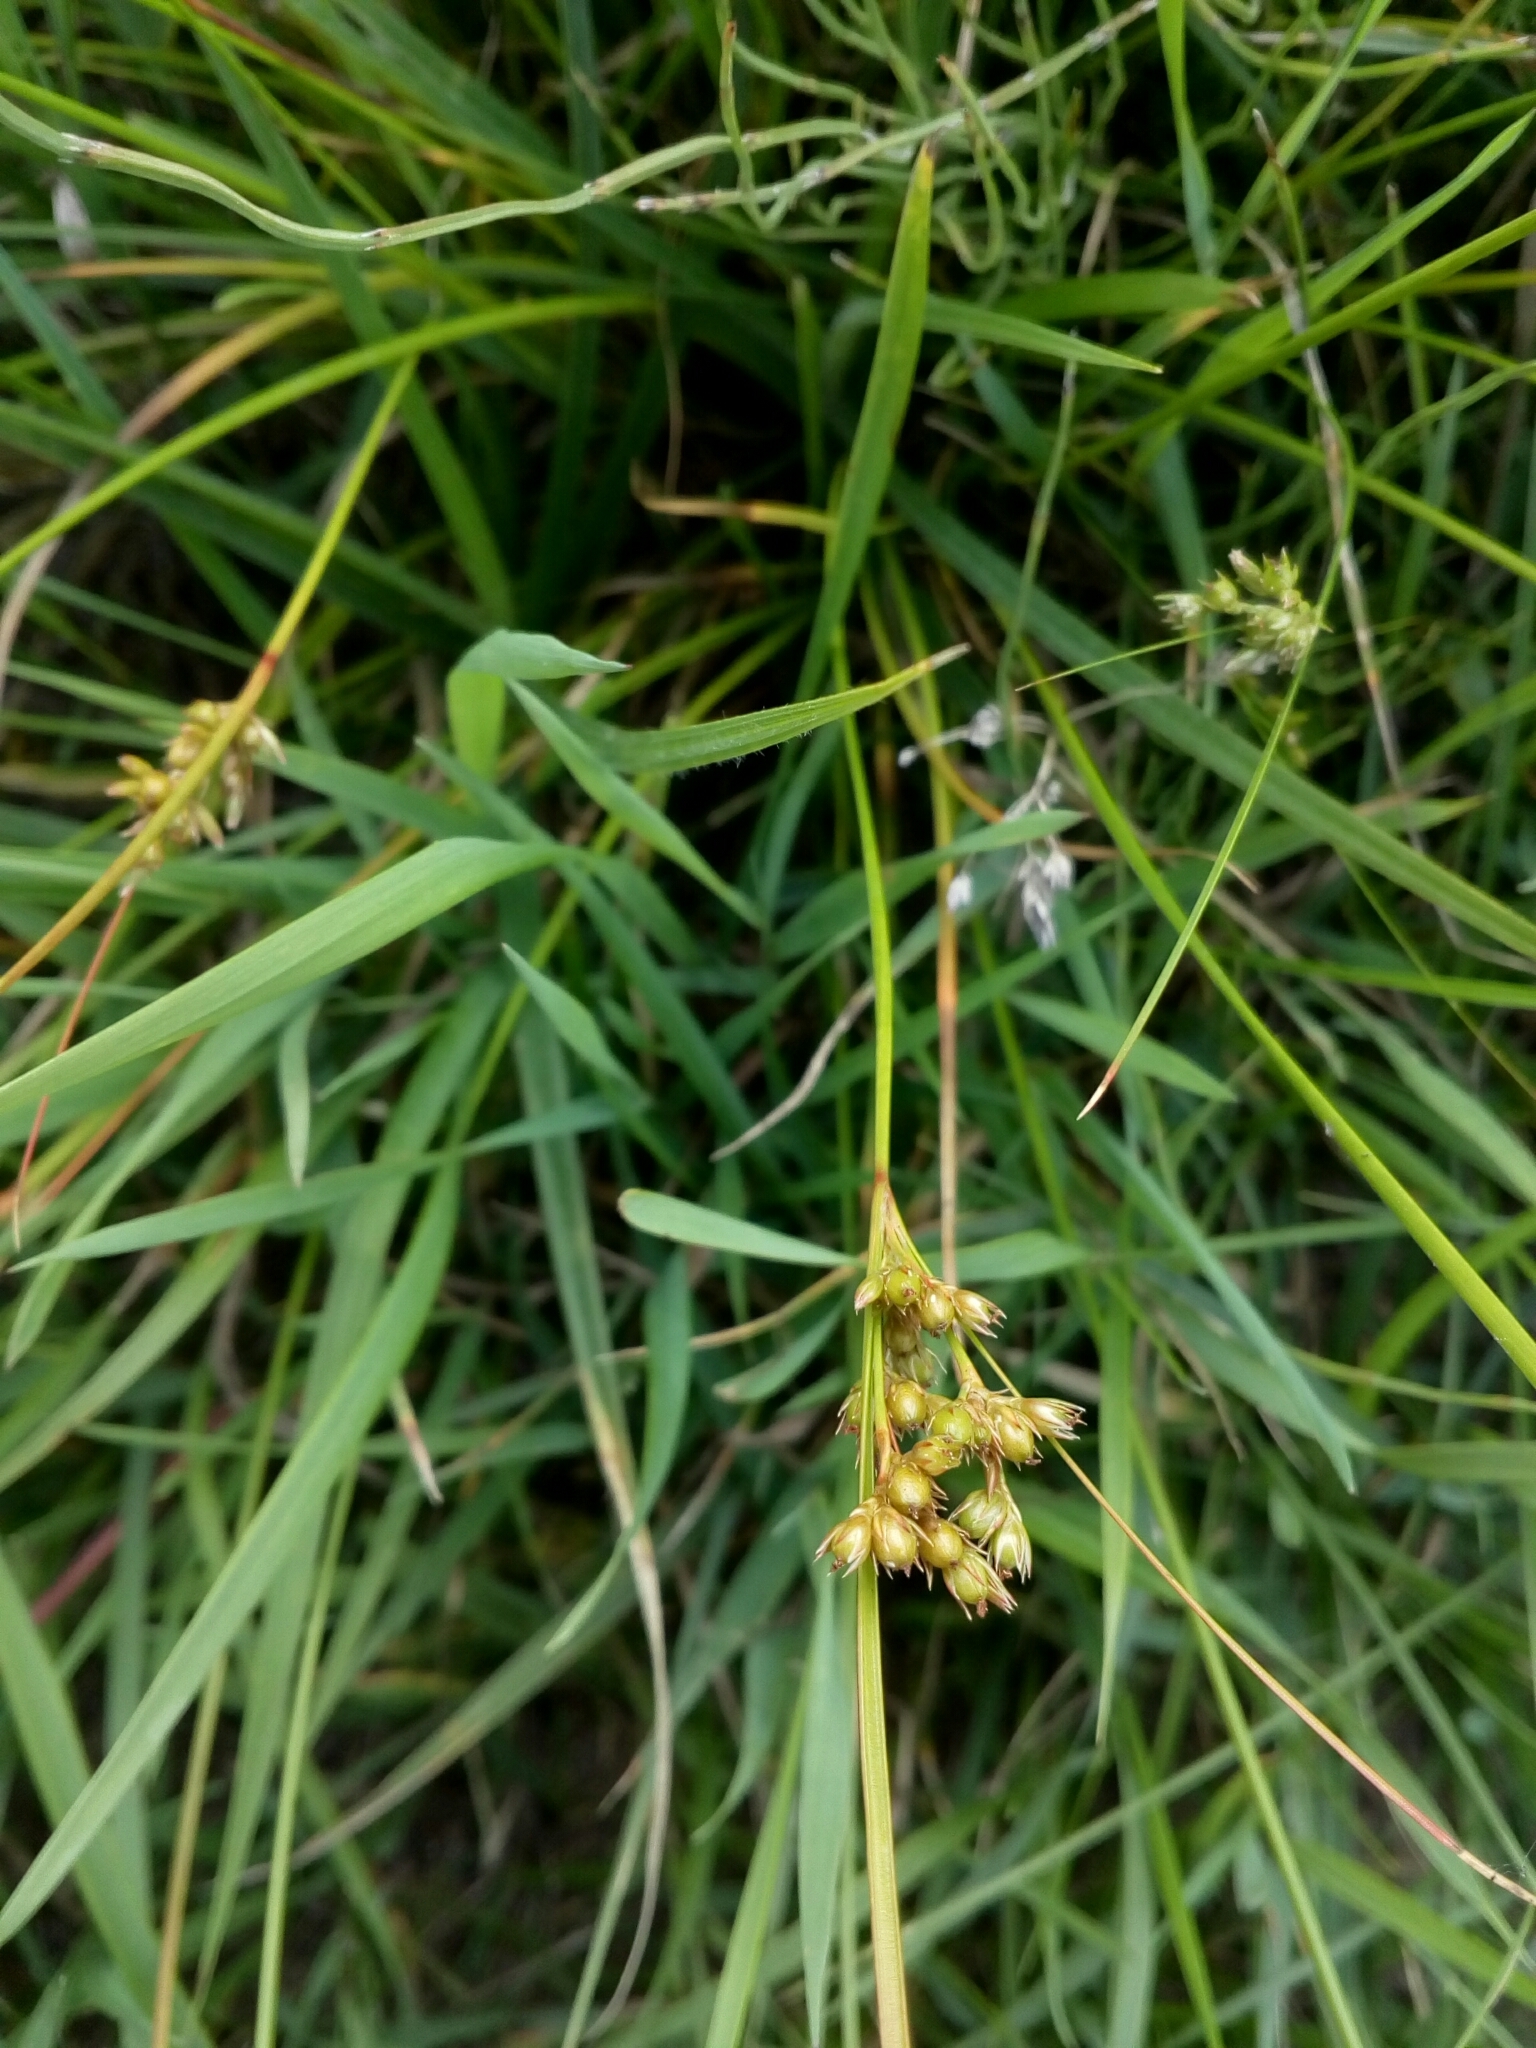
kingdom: Plantae
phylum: Tracheophyta
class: Liliopsida
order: Poales
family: Juncaceae
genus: Juncus
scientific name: Juncus tenuis
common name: Slender rush
